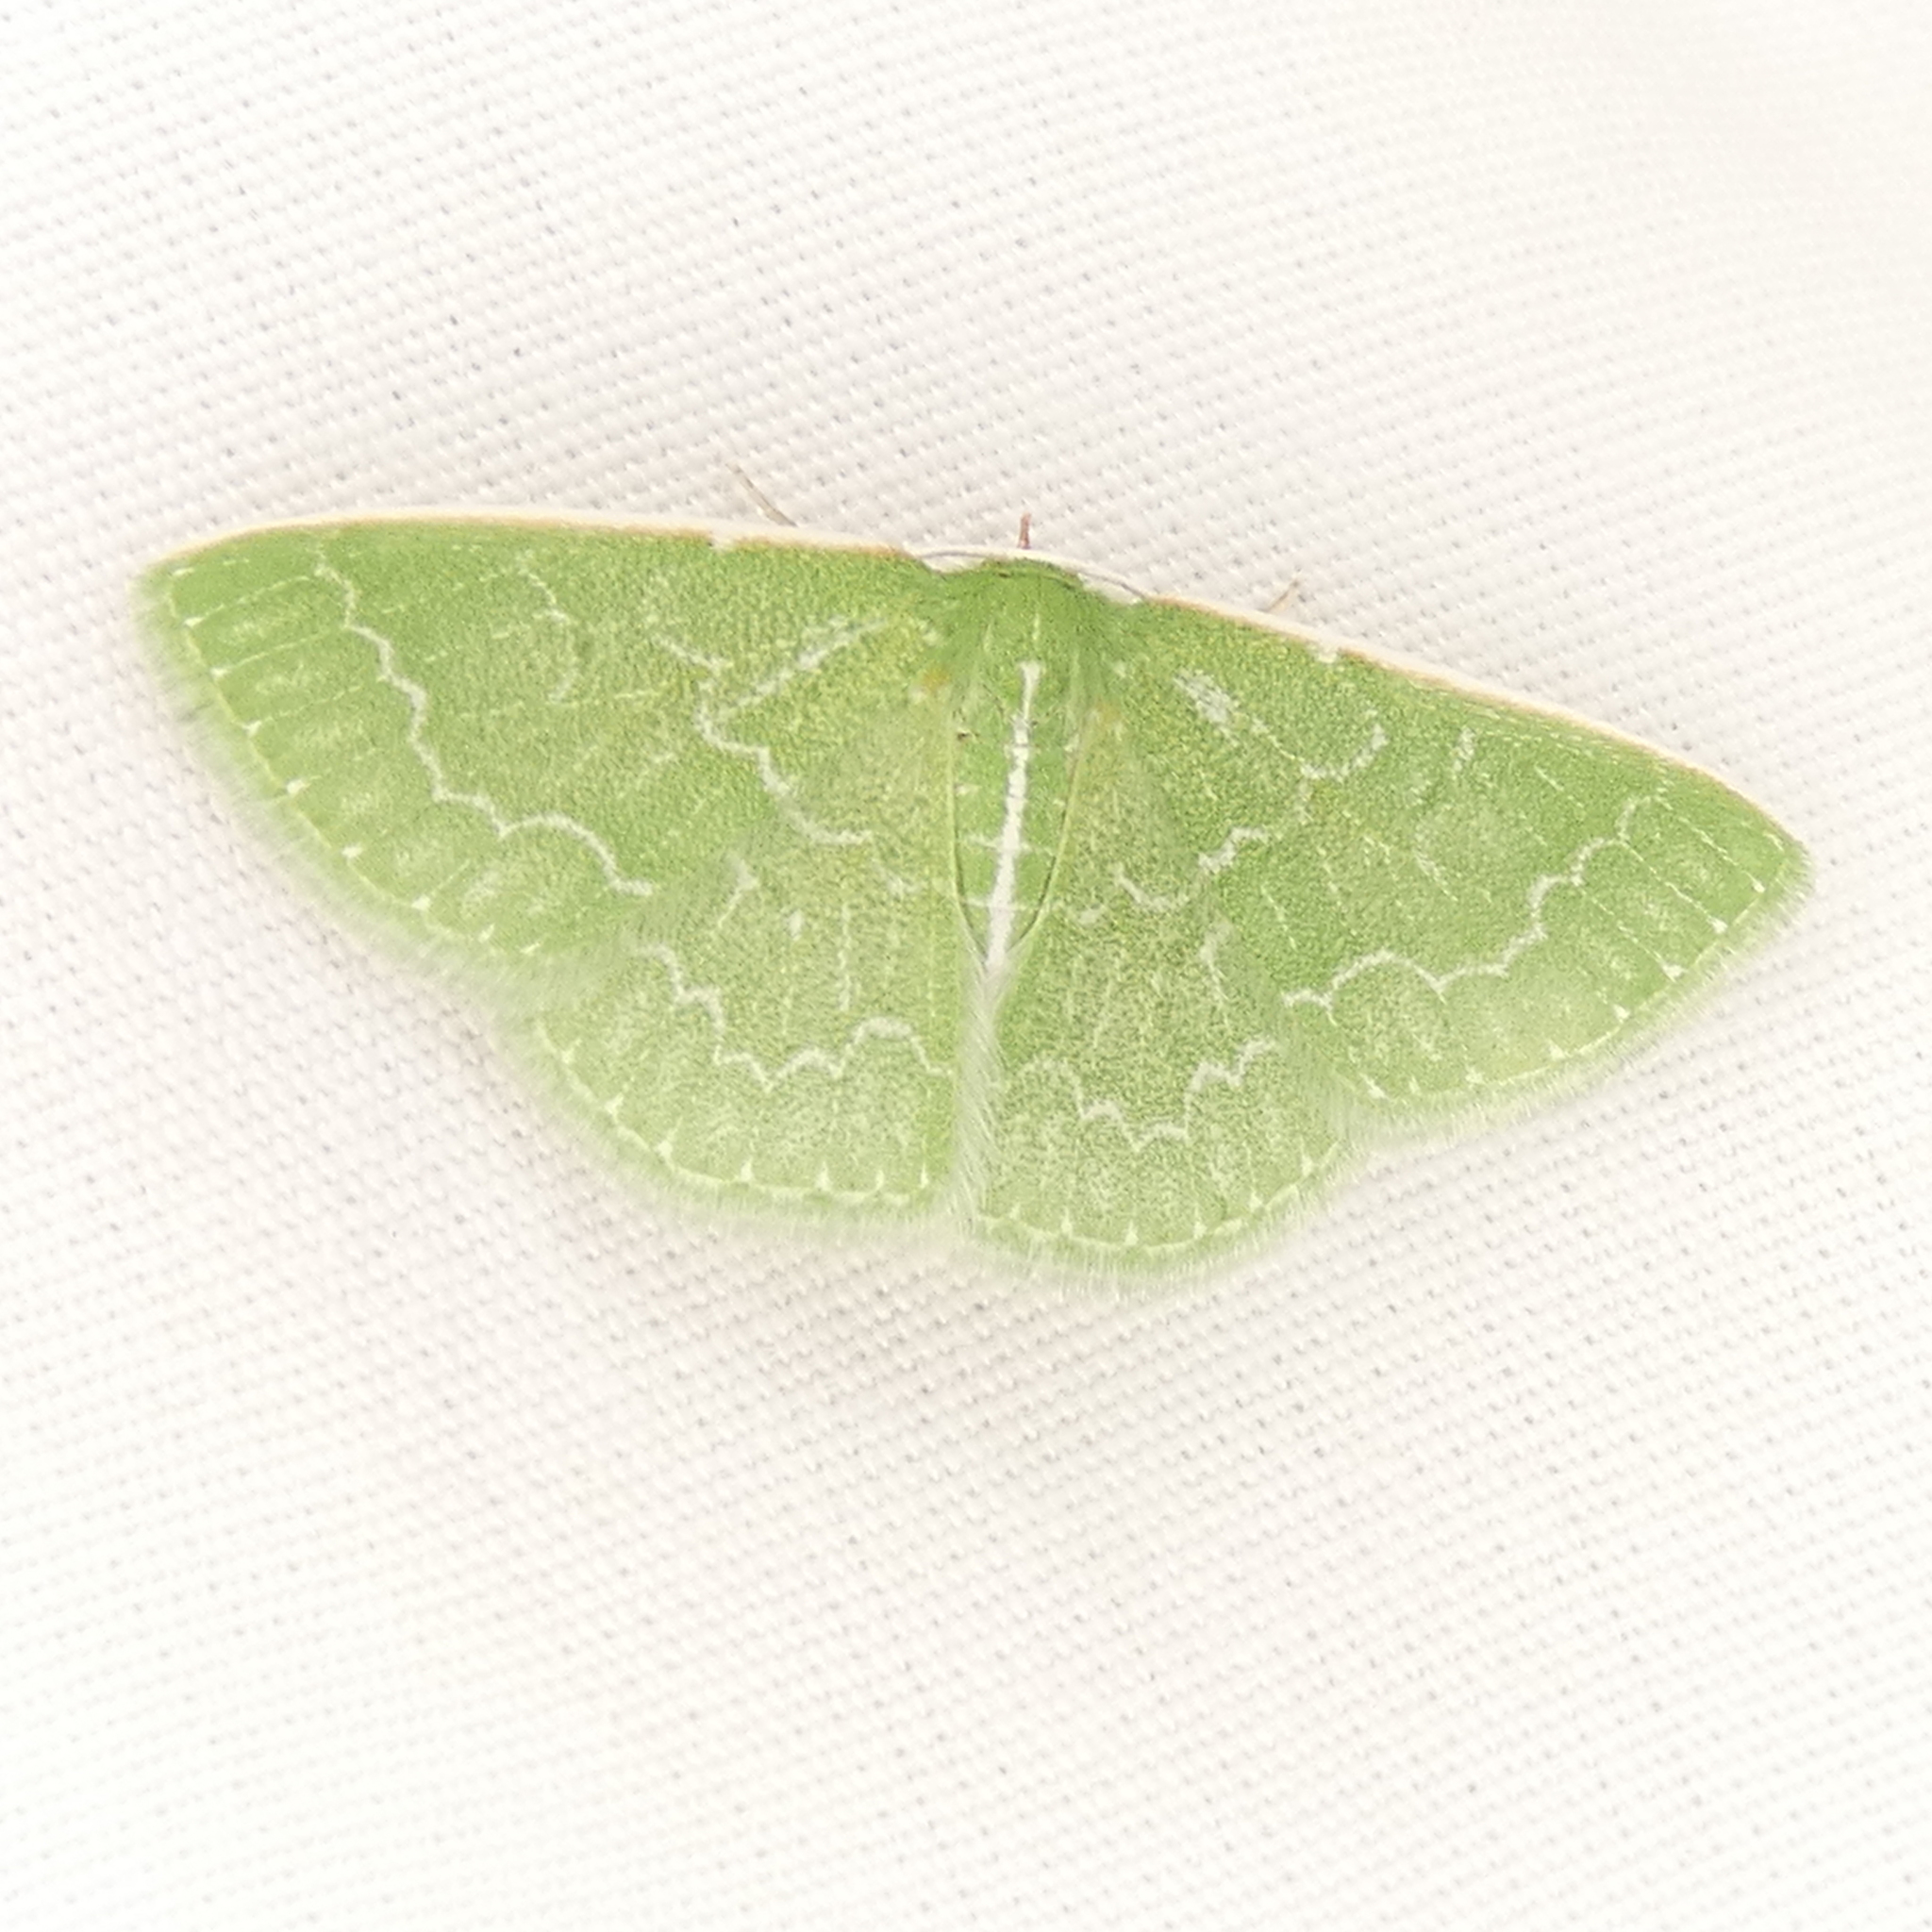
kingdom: Animalia
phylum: Arthropoda
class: Insecta
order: Lepidoptera
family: Geometridae
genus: Synchlora
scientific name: Synchlora frondaria
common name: Southern emerald
